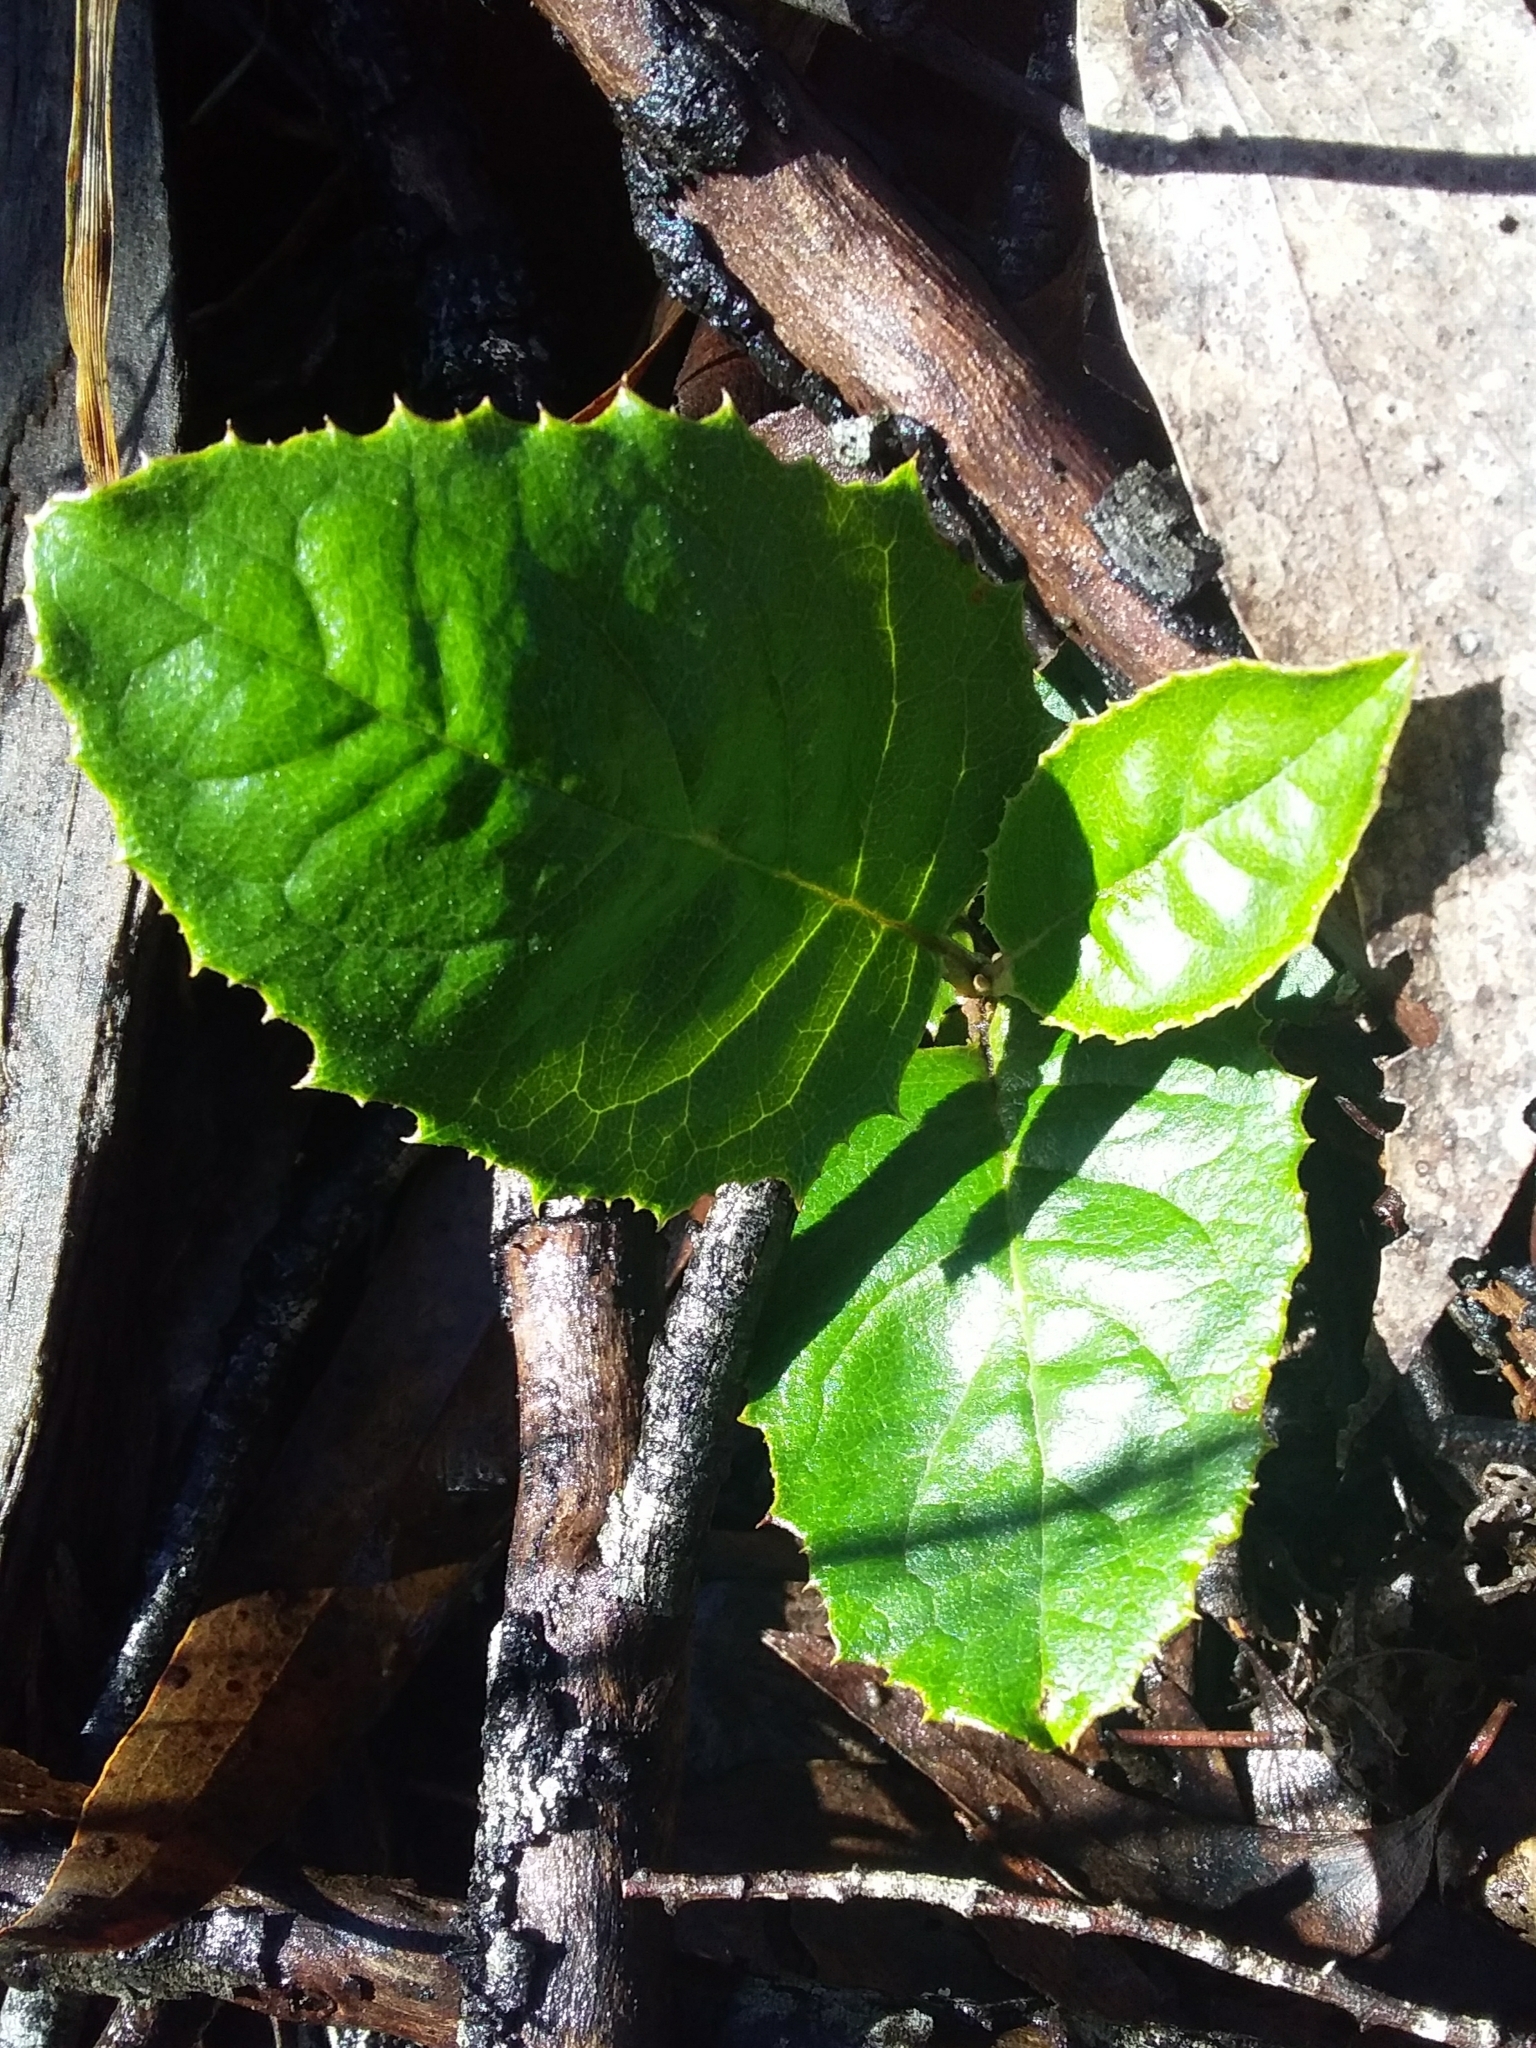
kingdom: Plantae
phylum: Tracheophyta
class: Magnoliopsida
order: Asterales
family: Asteraceae
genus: Olearia
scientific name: Olearia grandiflora
